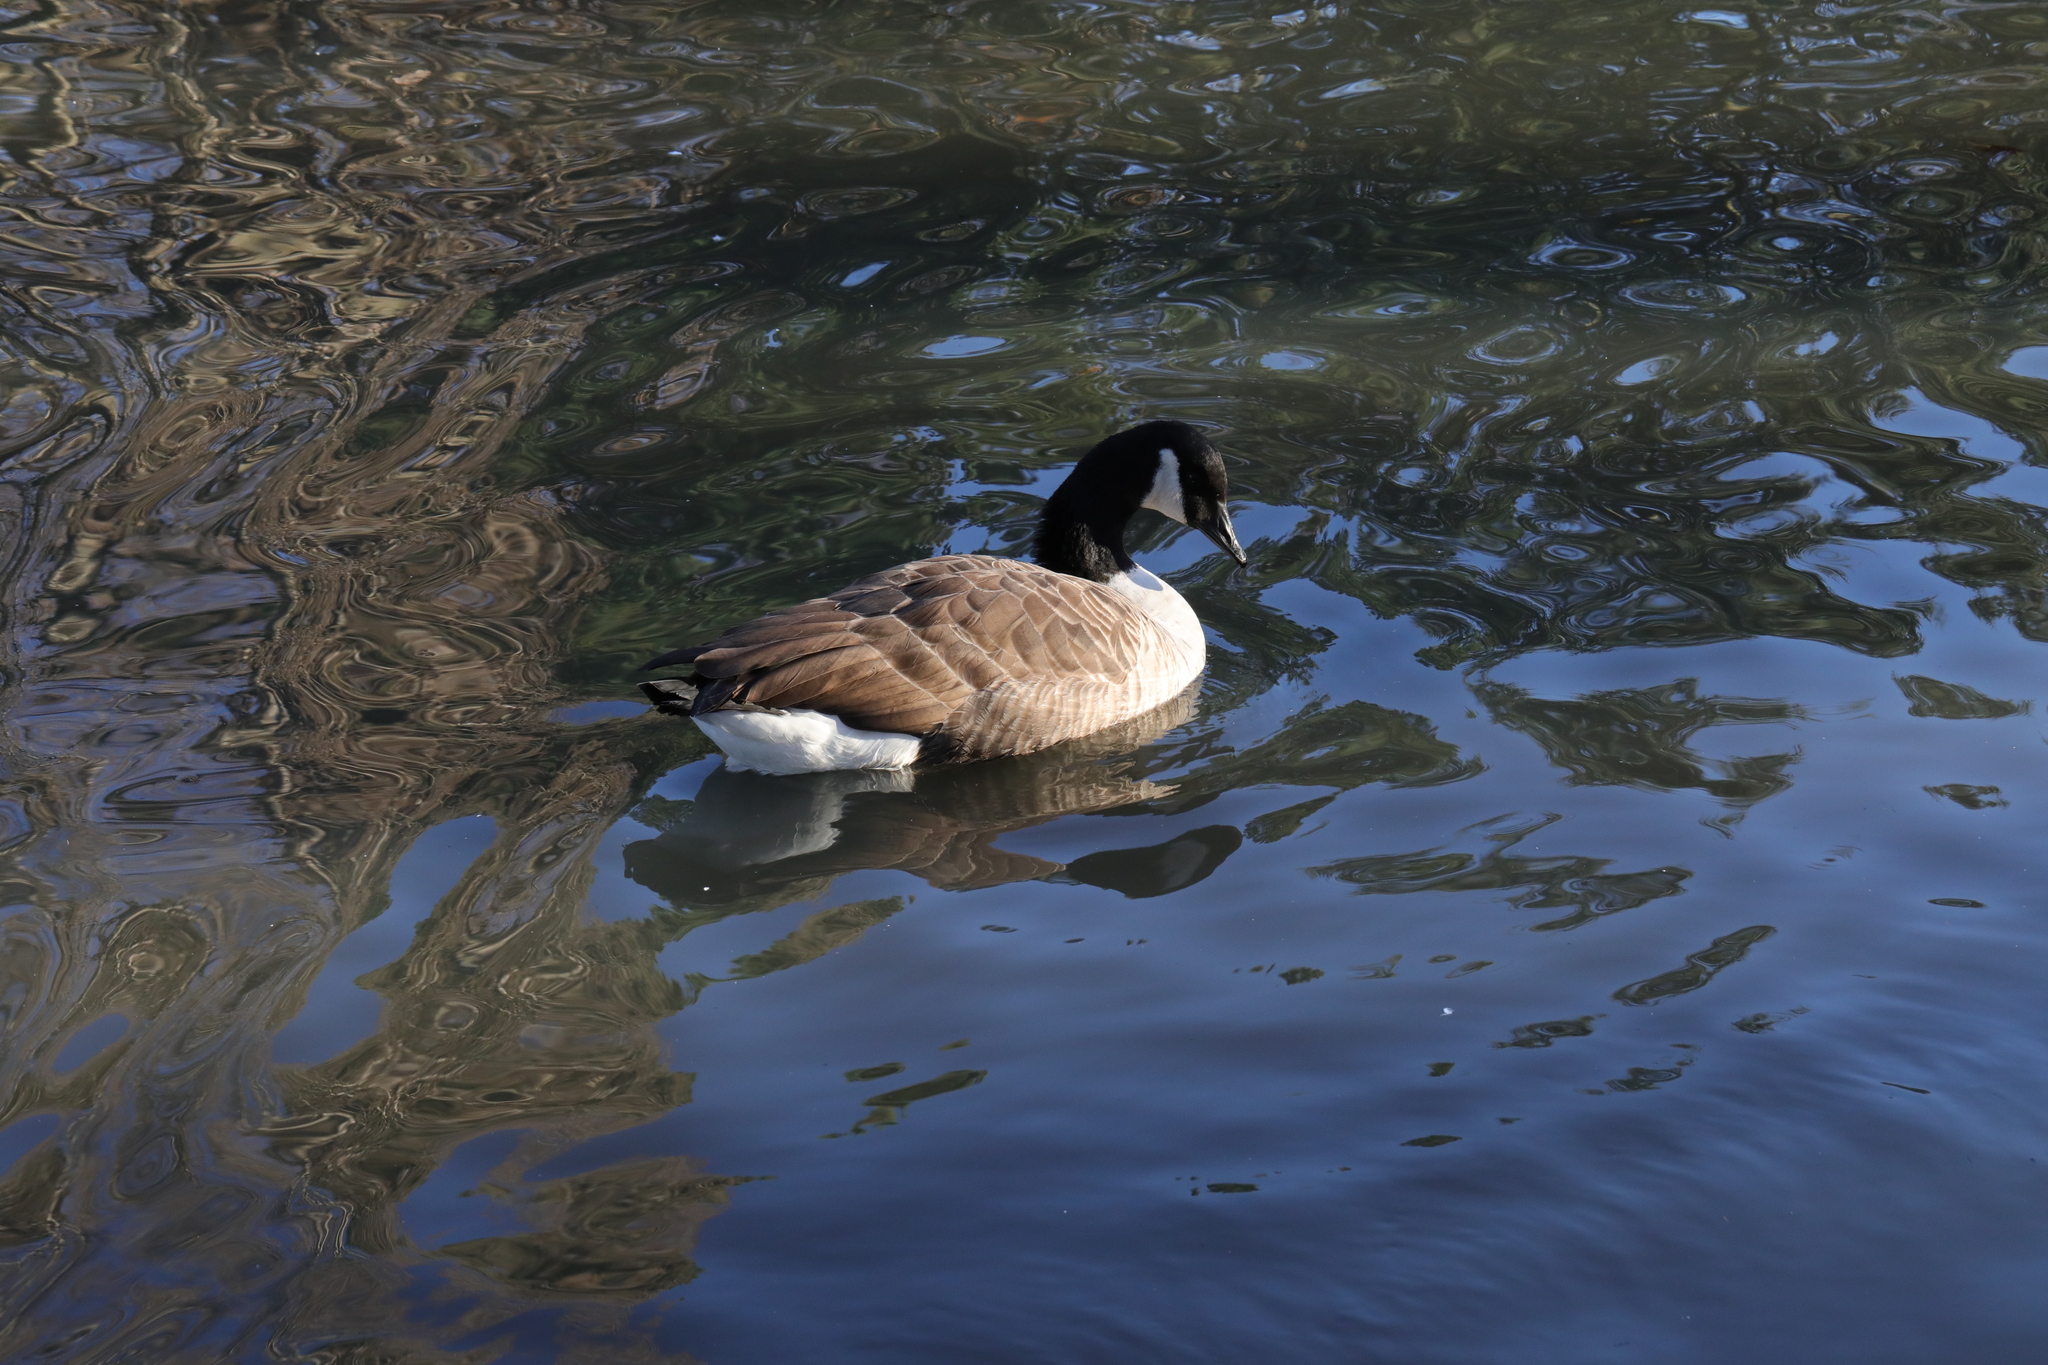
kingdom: Animalia
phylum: Chordata
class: Aves
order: Anseriformes
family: Anatidae
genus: Branta
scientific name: Branta canadensis
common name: Canada goose
